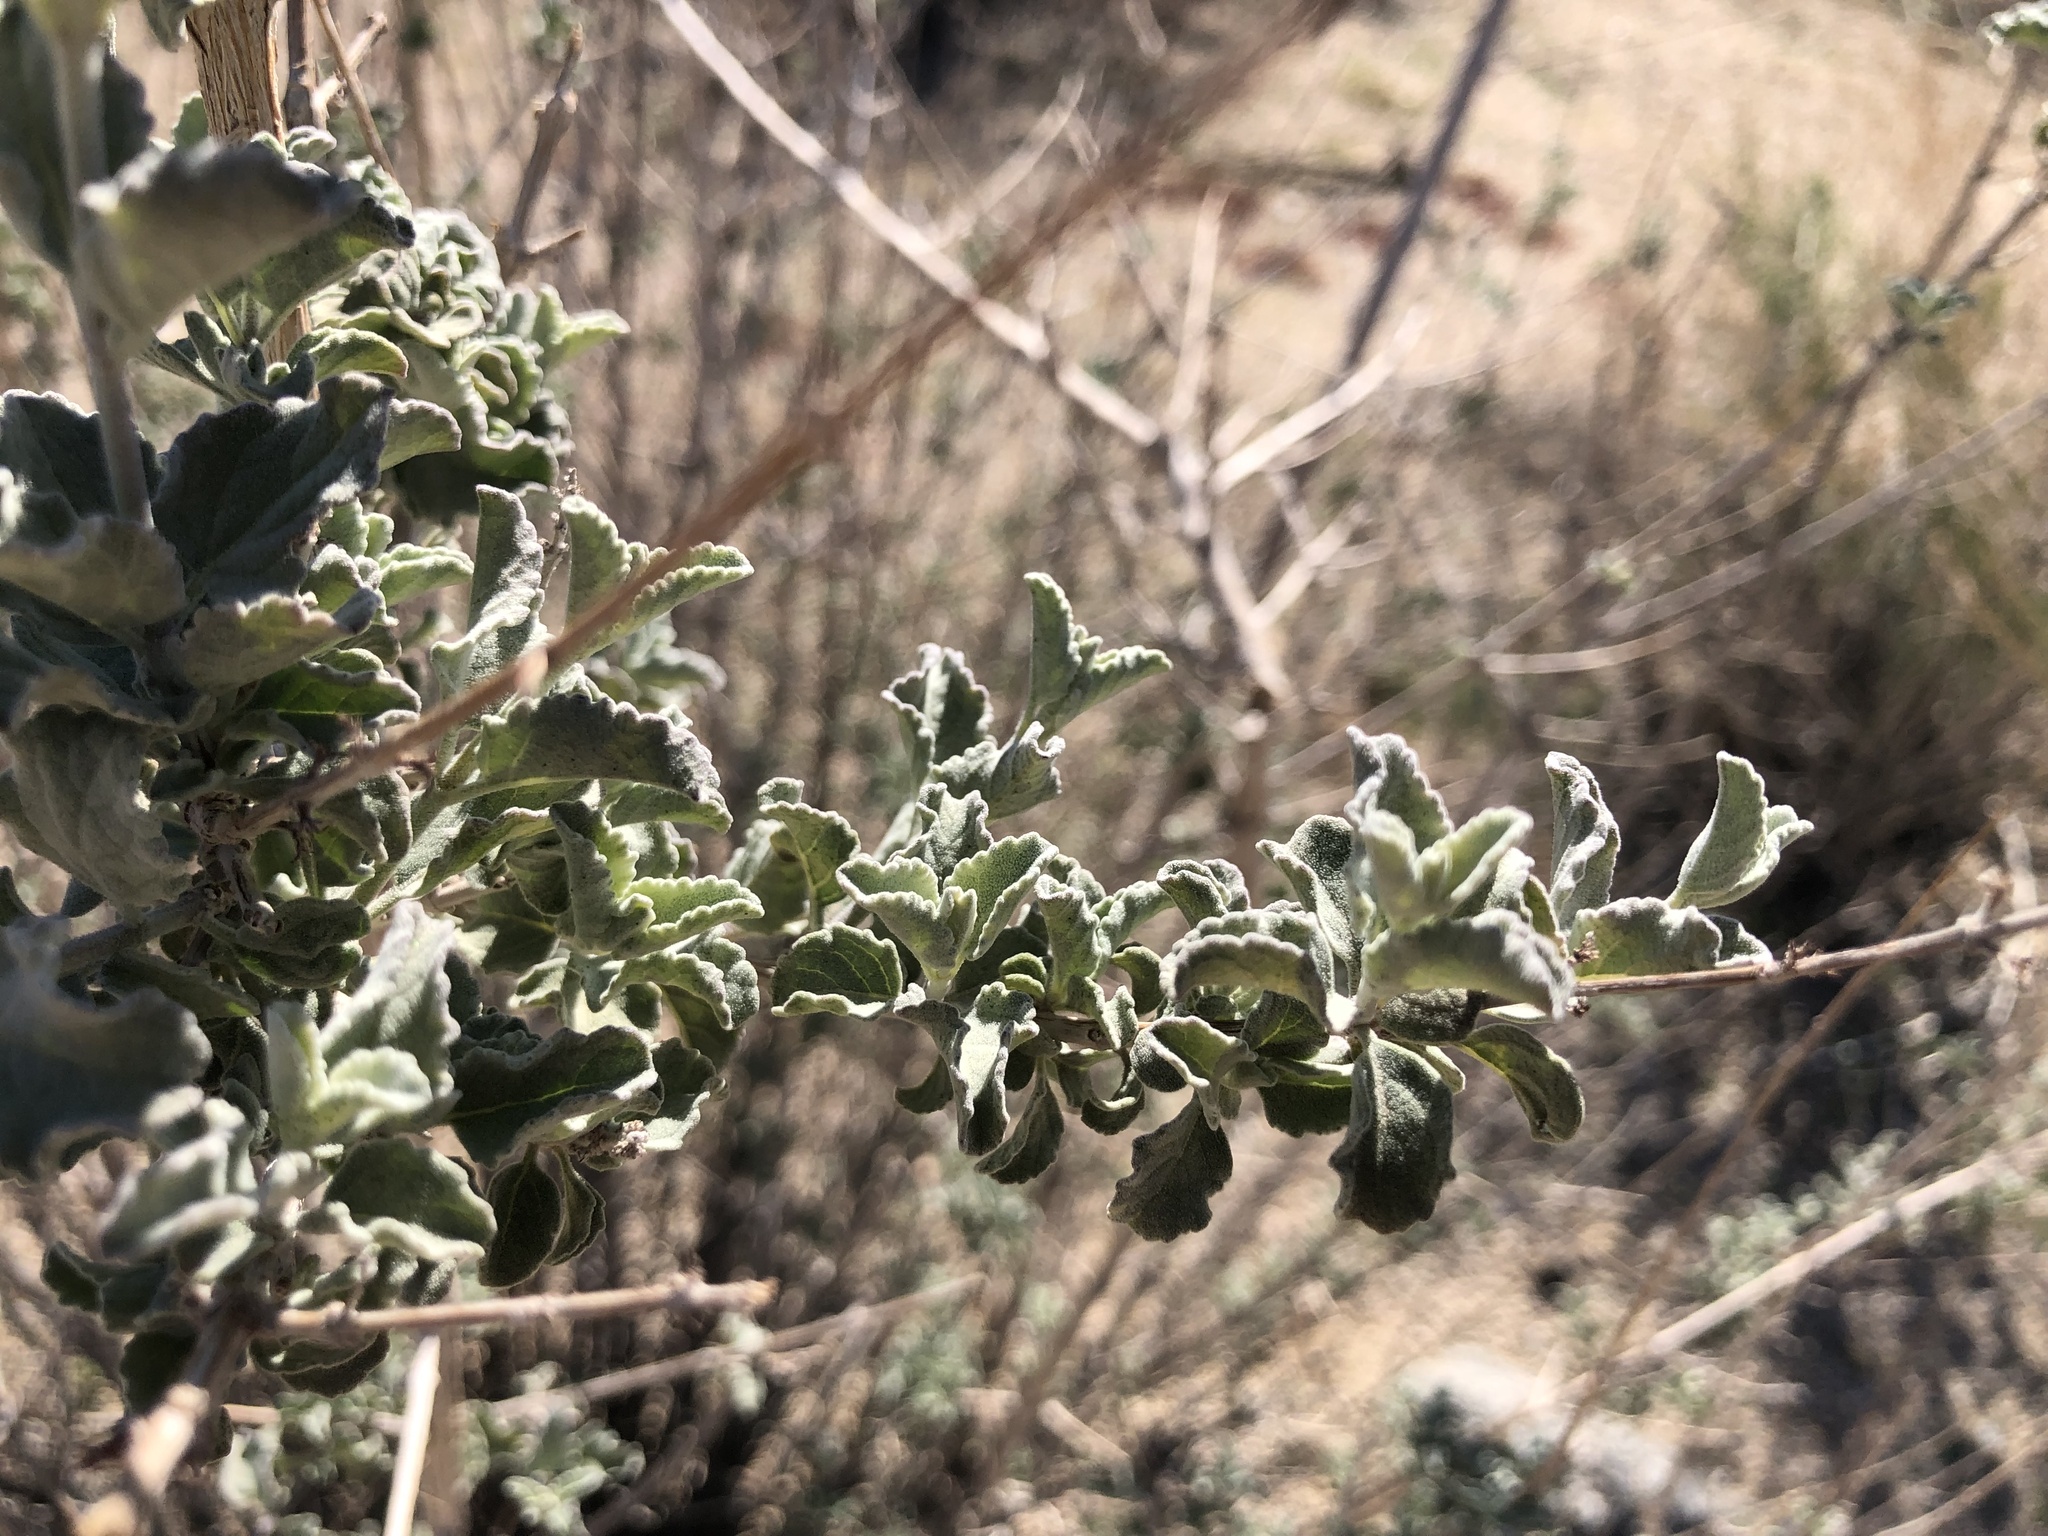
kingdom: Plantae
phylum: Tracheophyta
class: Magnoliopsida
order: Lamiales
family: Lamiaceae
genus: Condea
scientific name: Condea emoryi
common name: Chia
